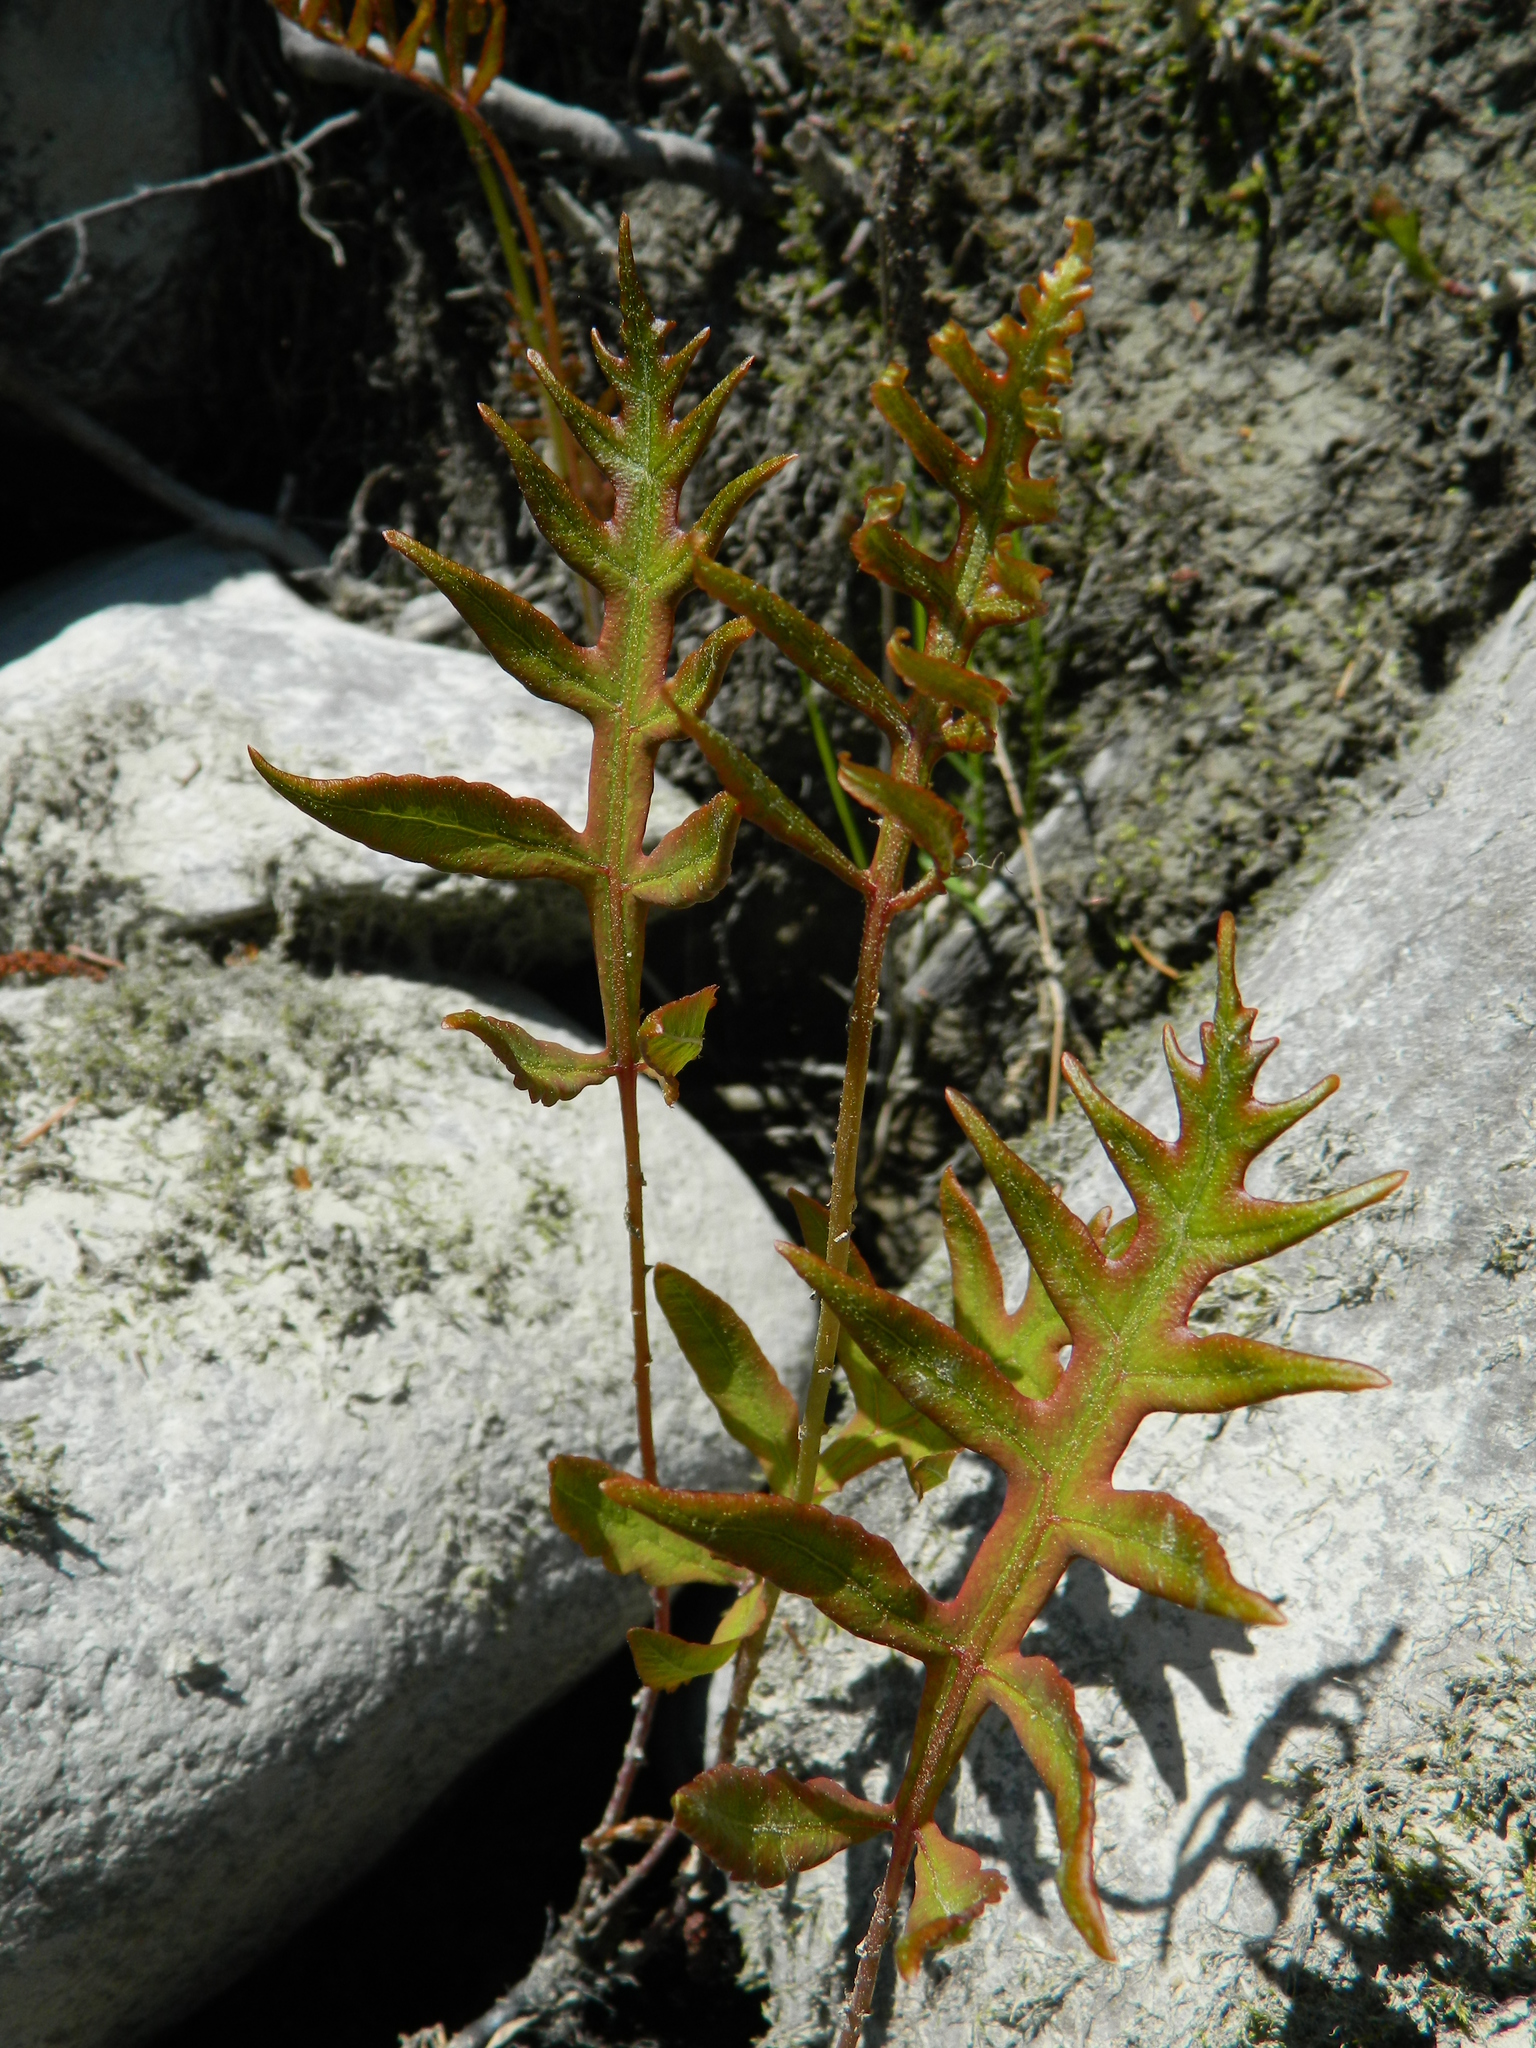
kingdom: Plantae
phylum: Tracheophyta
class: Polypodiopsida
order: Polypodiales
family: Onocleaceae
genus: Onoclea
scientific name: Onoclea sensibilis
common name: Sensitive fern
